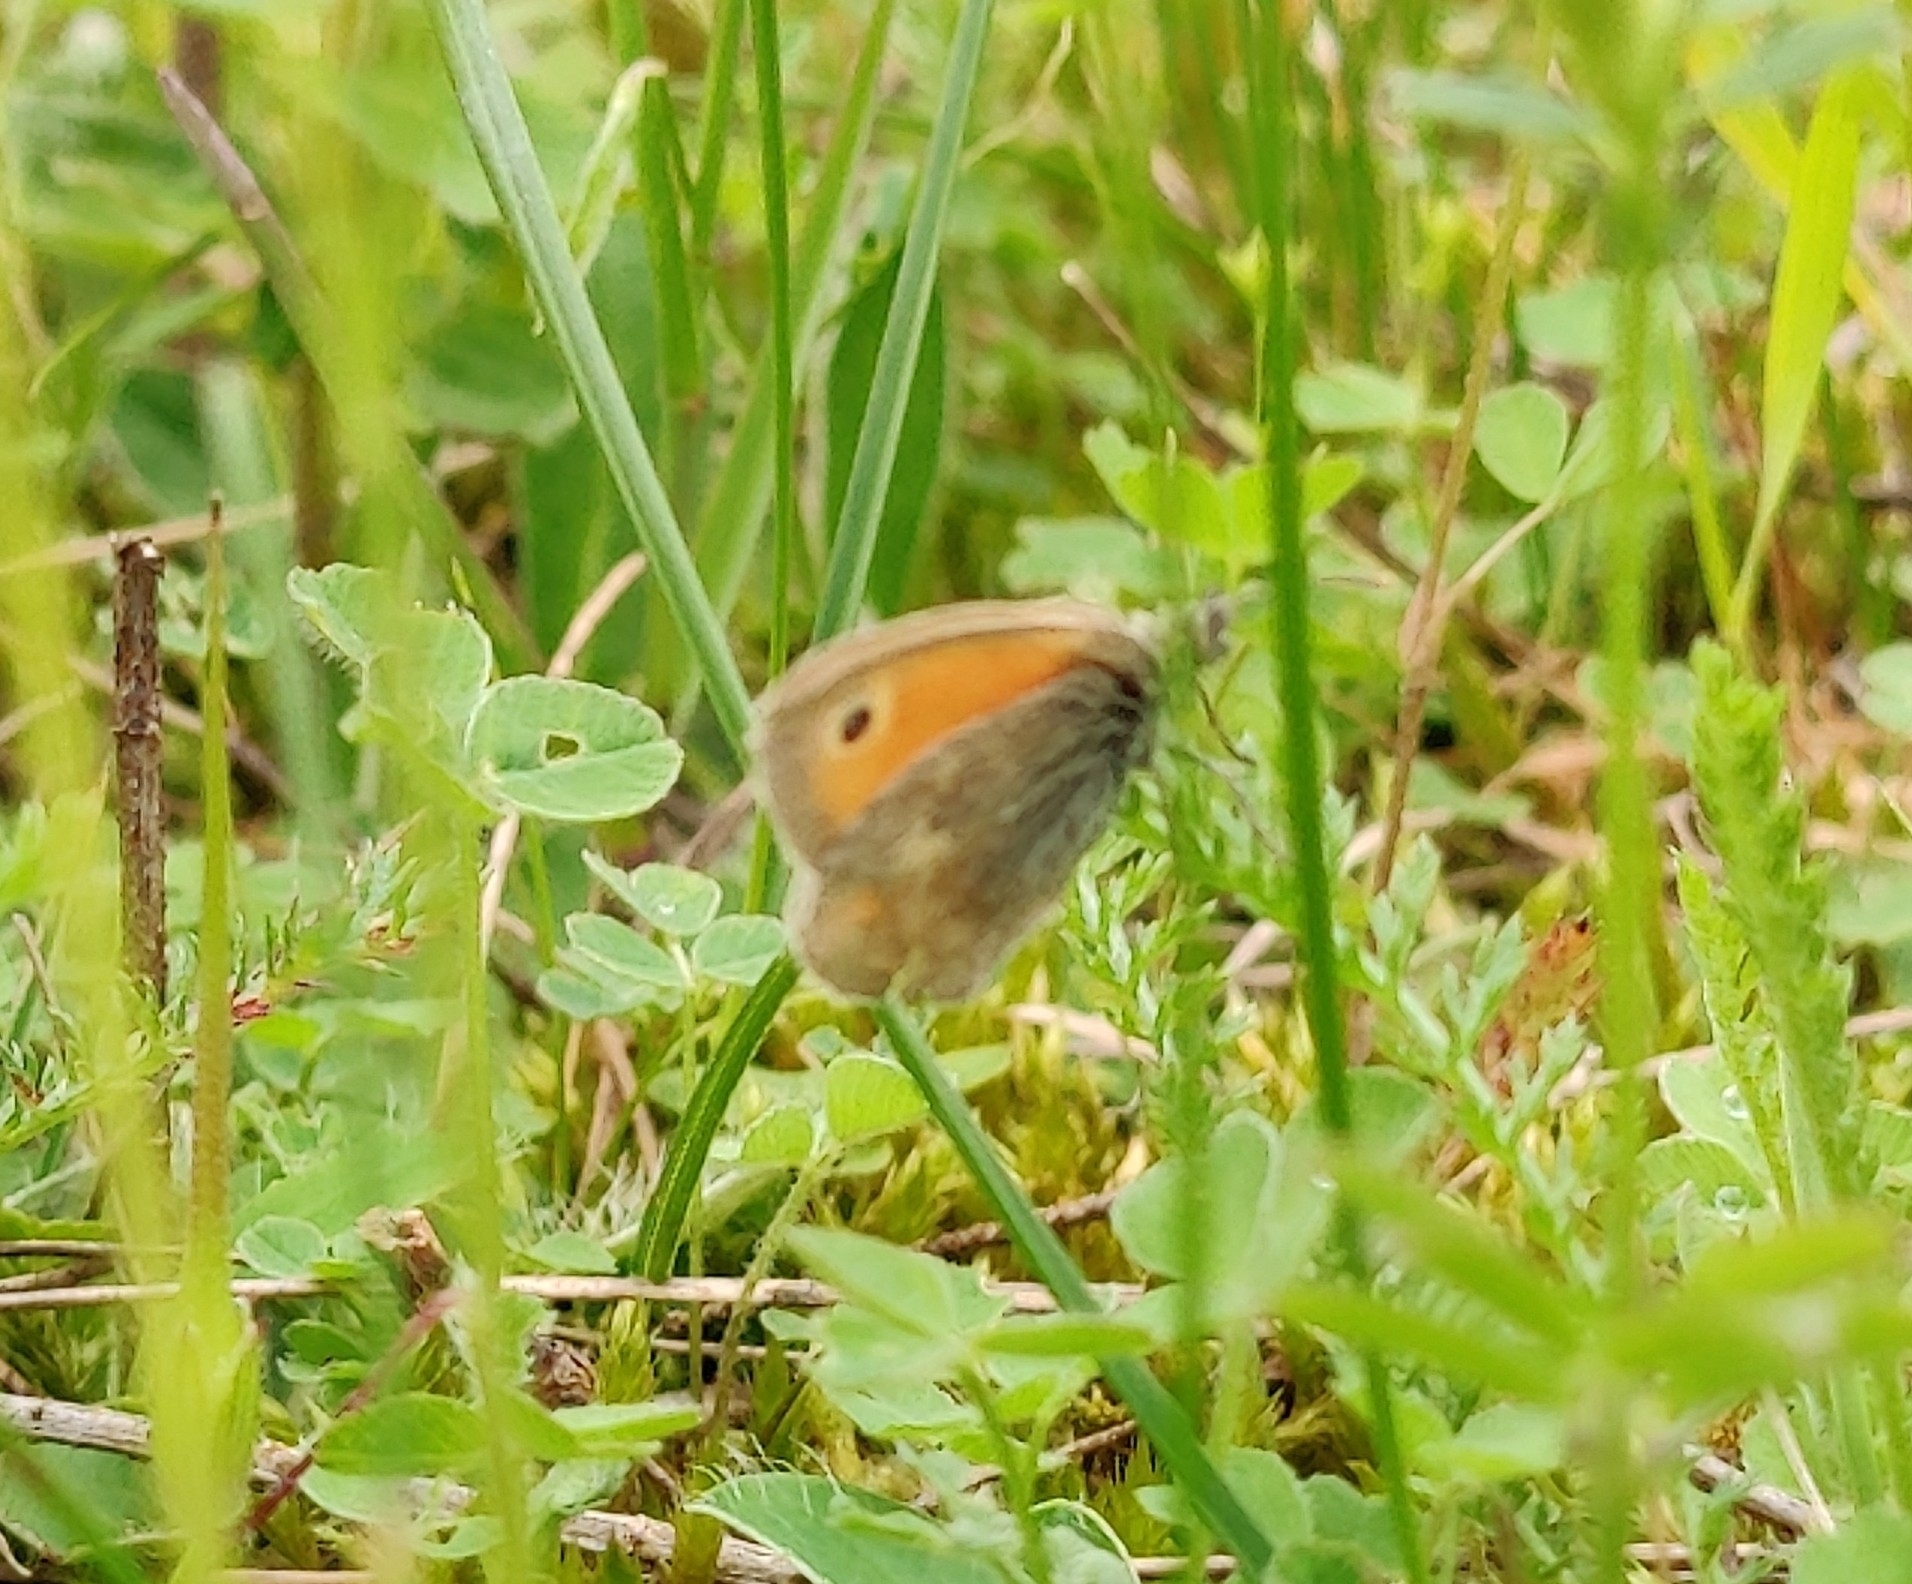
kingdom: Animalia
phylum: Arthropoda
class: Insecta
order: Lepidoptera
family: Nymphalidae
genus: Coenonympha
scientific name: Coenonympha pamphilus
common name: Small heath
